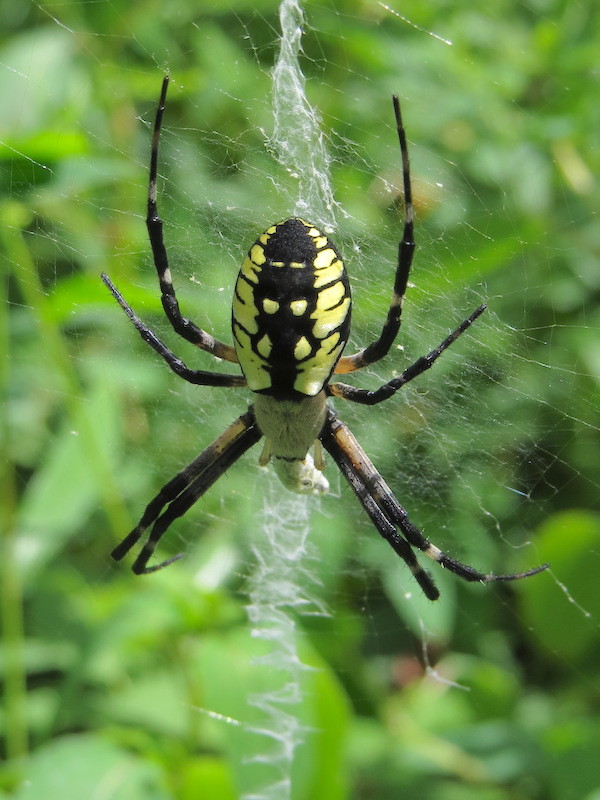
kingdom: Animalia
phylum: Arthropoda
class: Arachnida
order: Araneae
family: Araneidae
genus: Argiope
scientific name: Argiope aurantia
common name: Orb weavers
